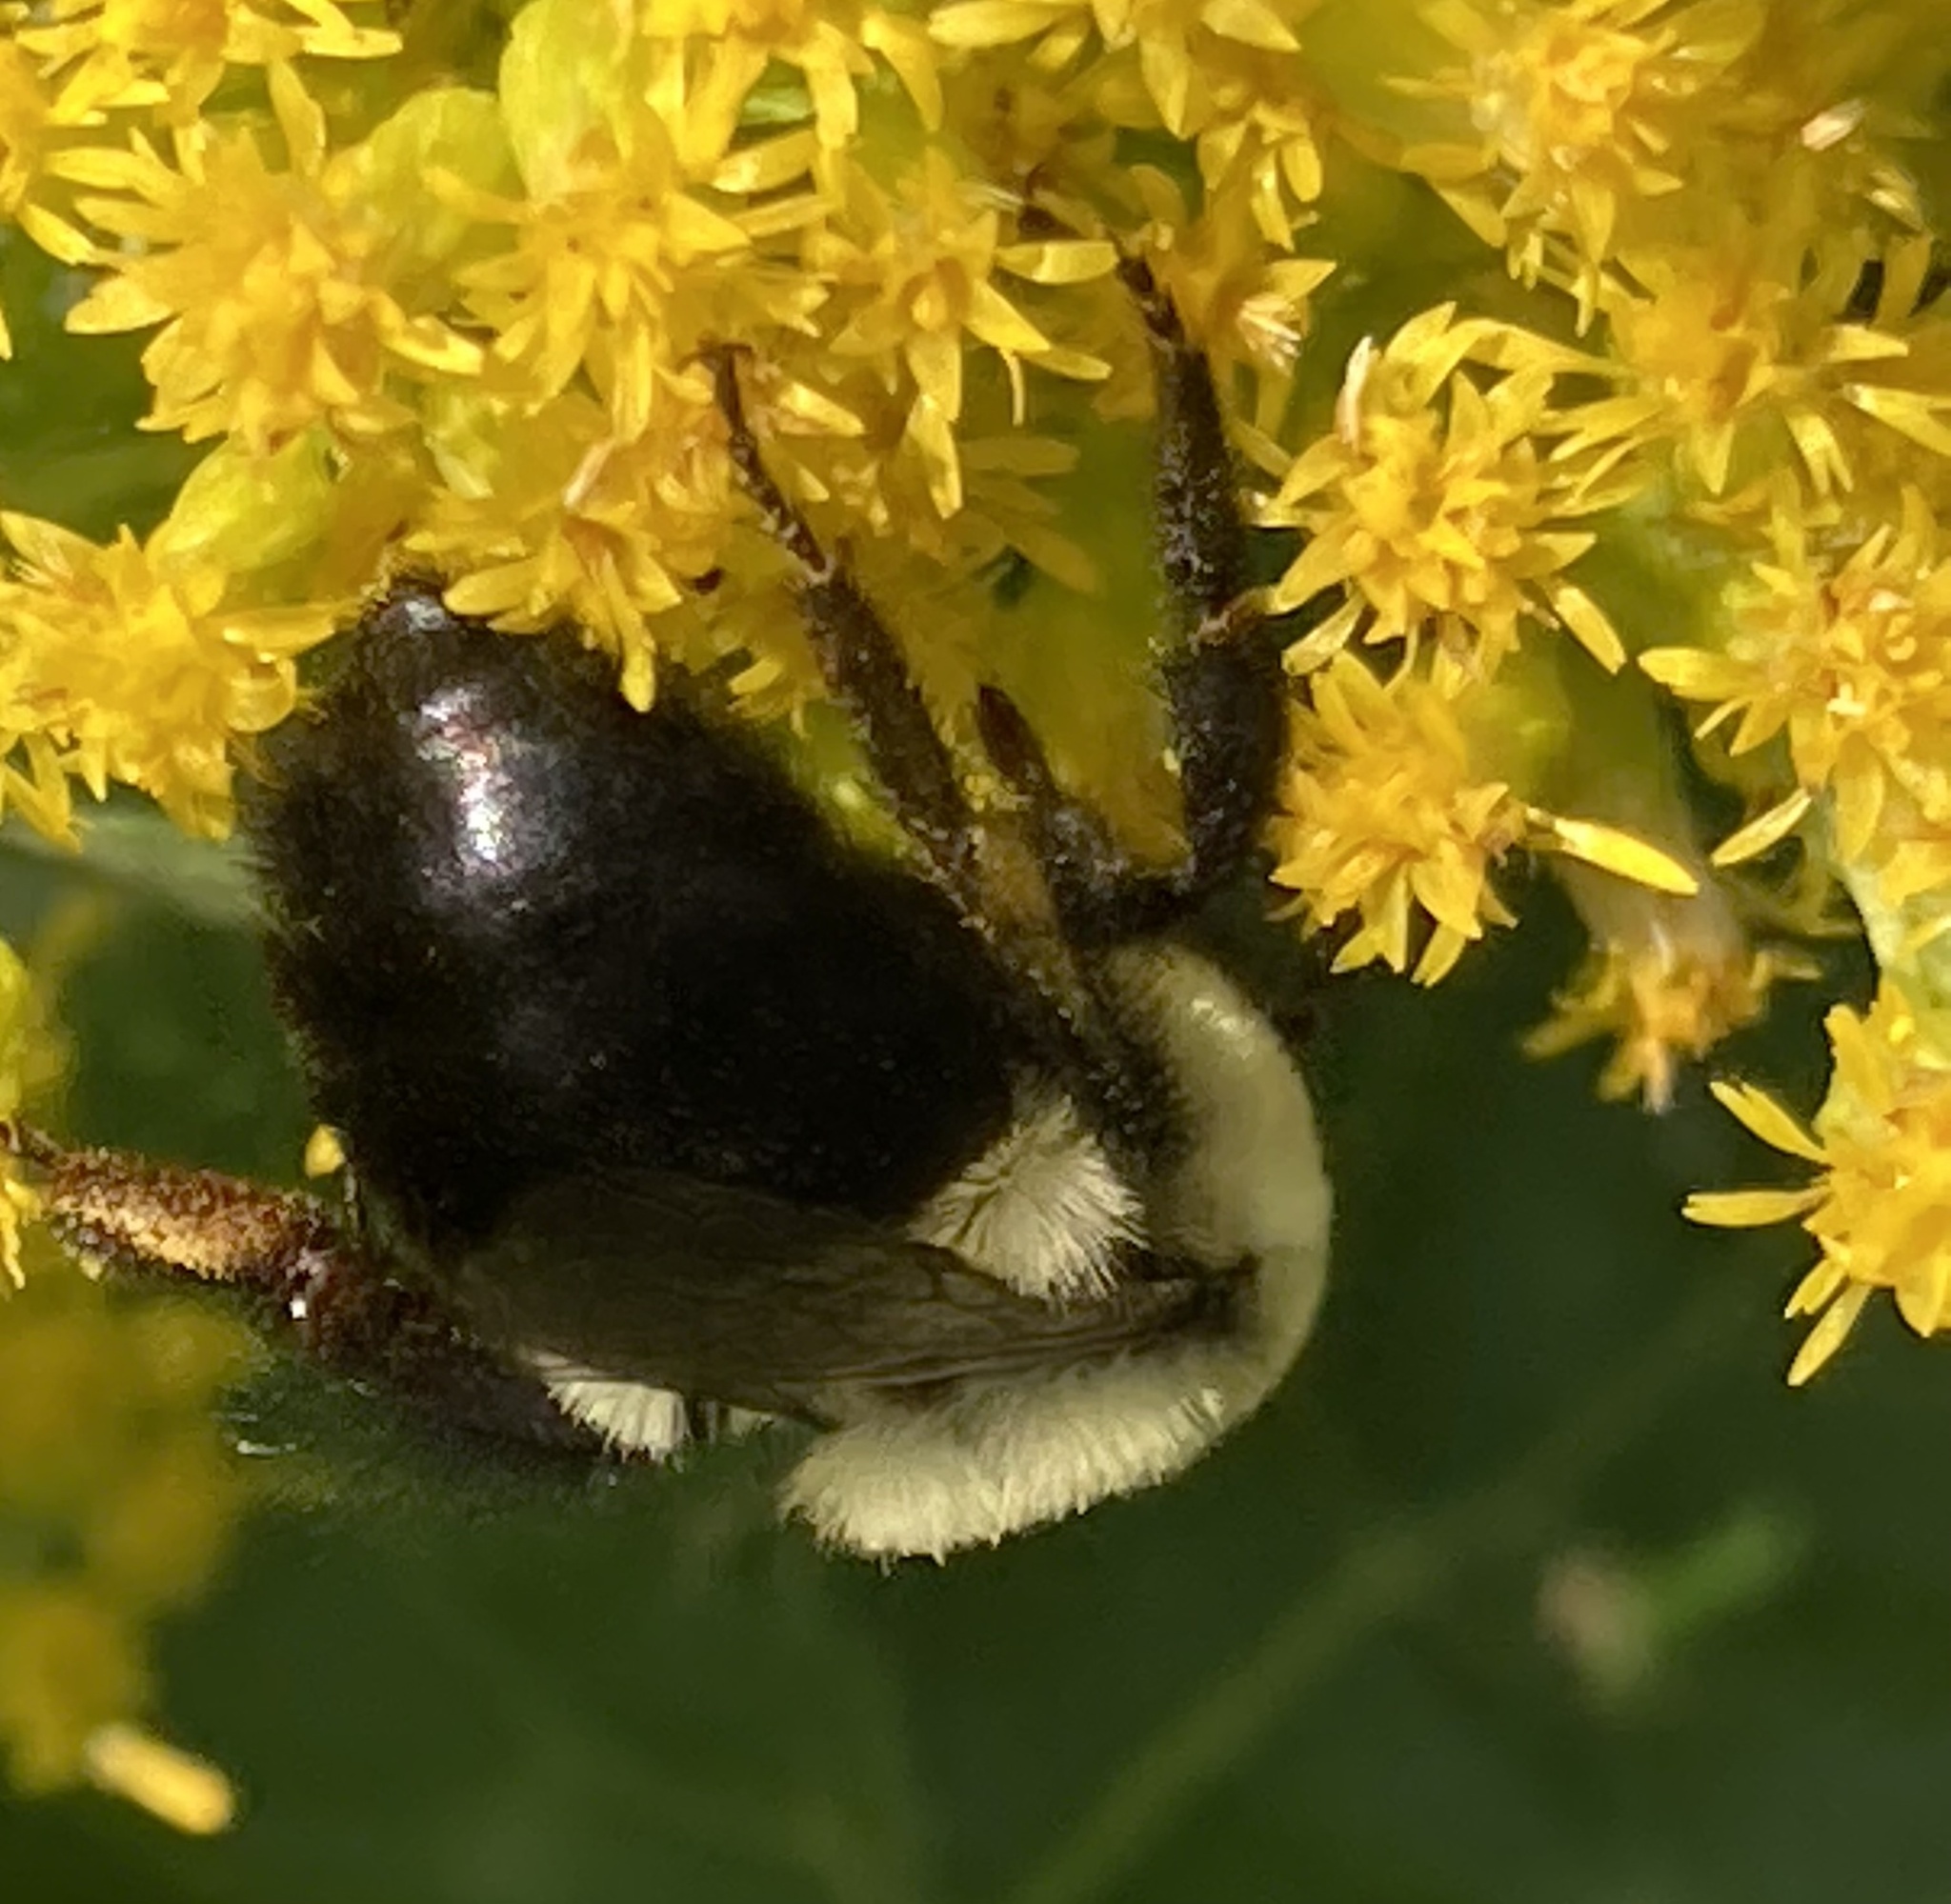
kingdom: Animalia
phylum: Arthropoda
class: Insecta
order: Hymenoptera
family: Apidae
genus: Bombus
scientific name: Bombus impatiens
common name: Common eastern bumble bee
